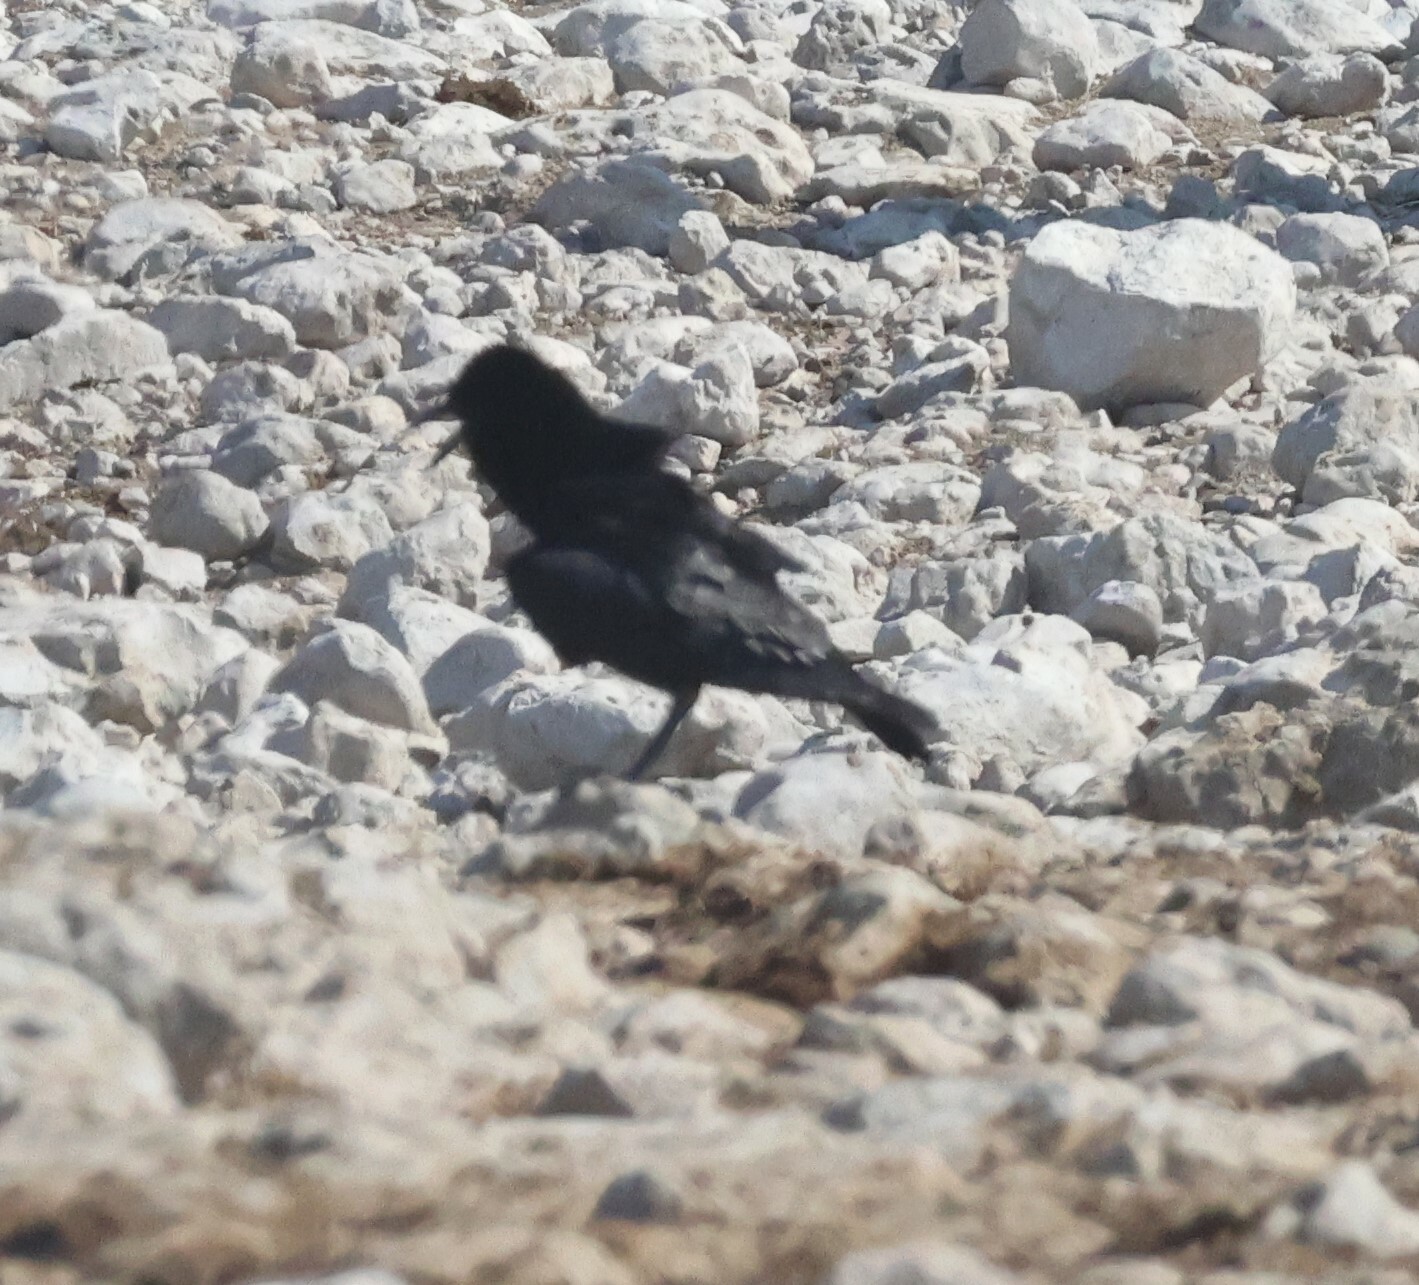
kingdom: Animalia
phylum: Chordata
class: Aves
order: Passeriformes
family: Corvidae
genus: Corvus
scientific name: Corvus capensis
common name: Cape crow
